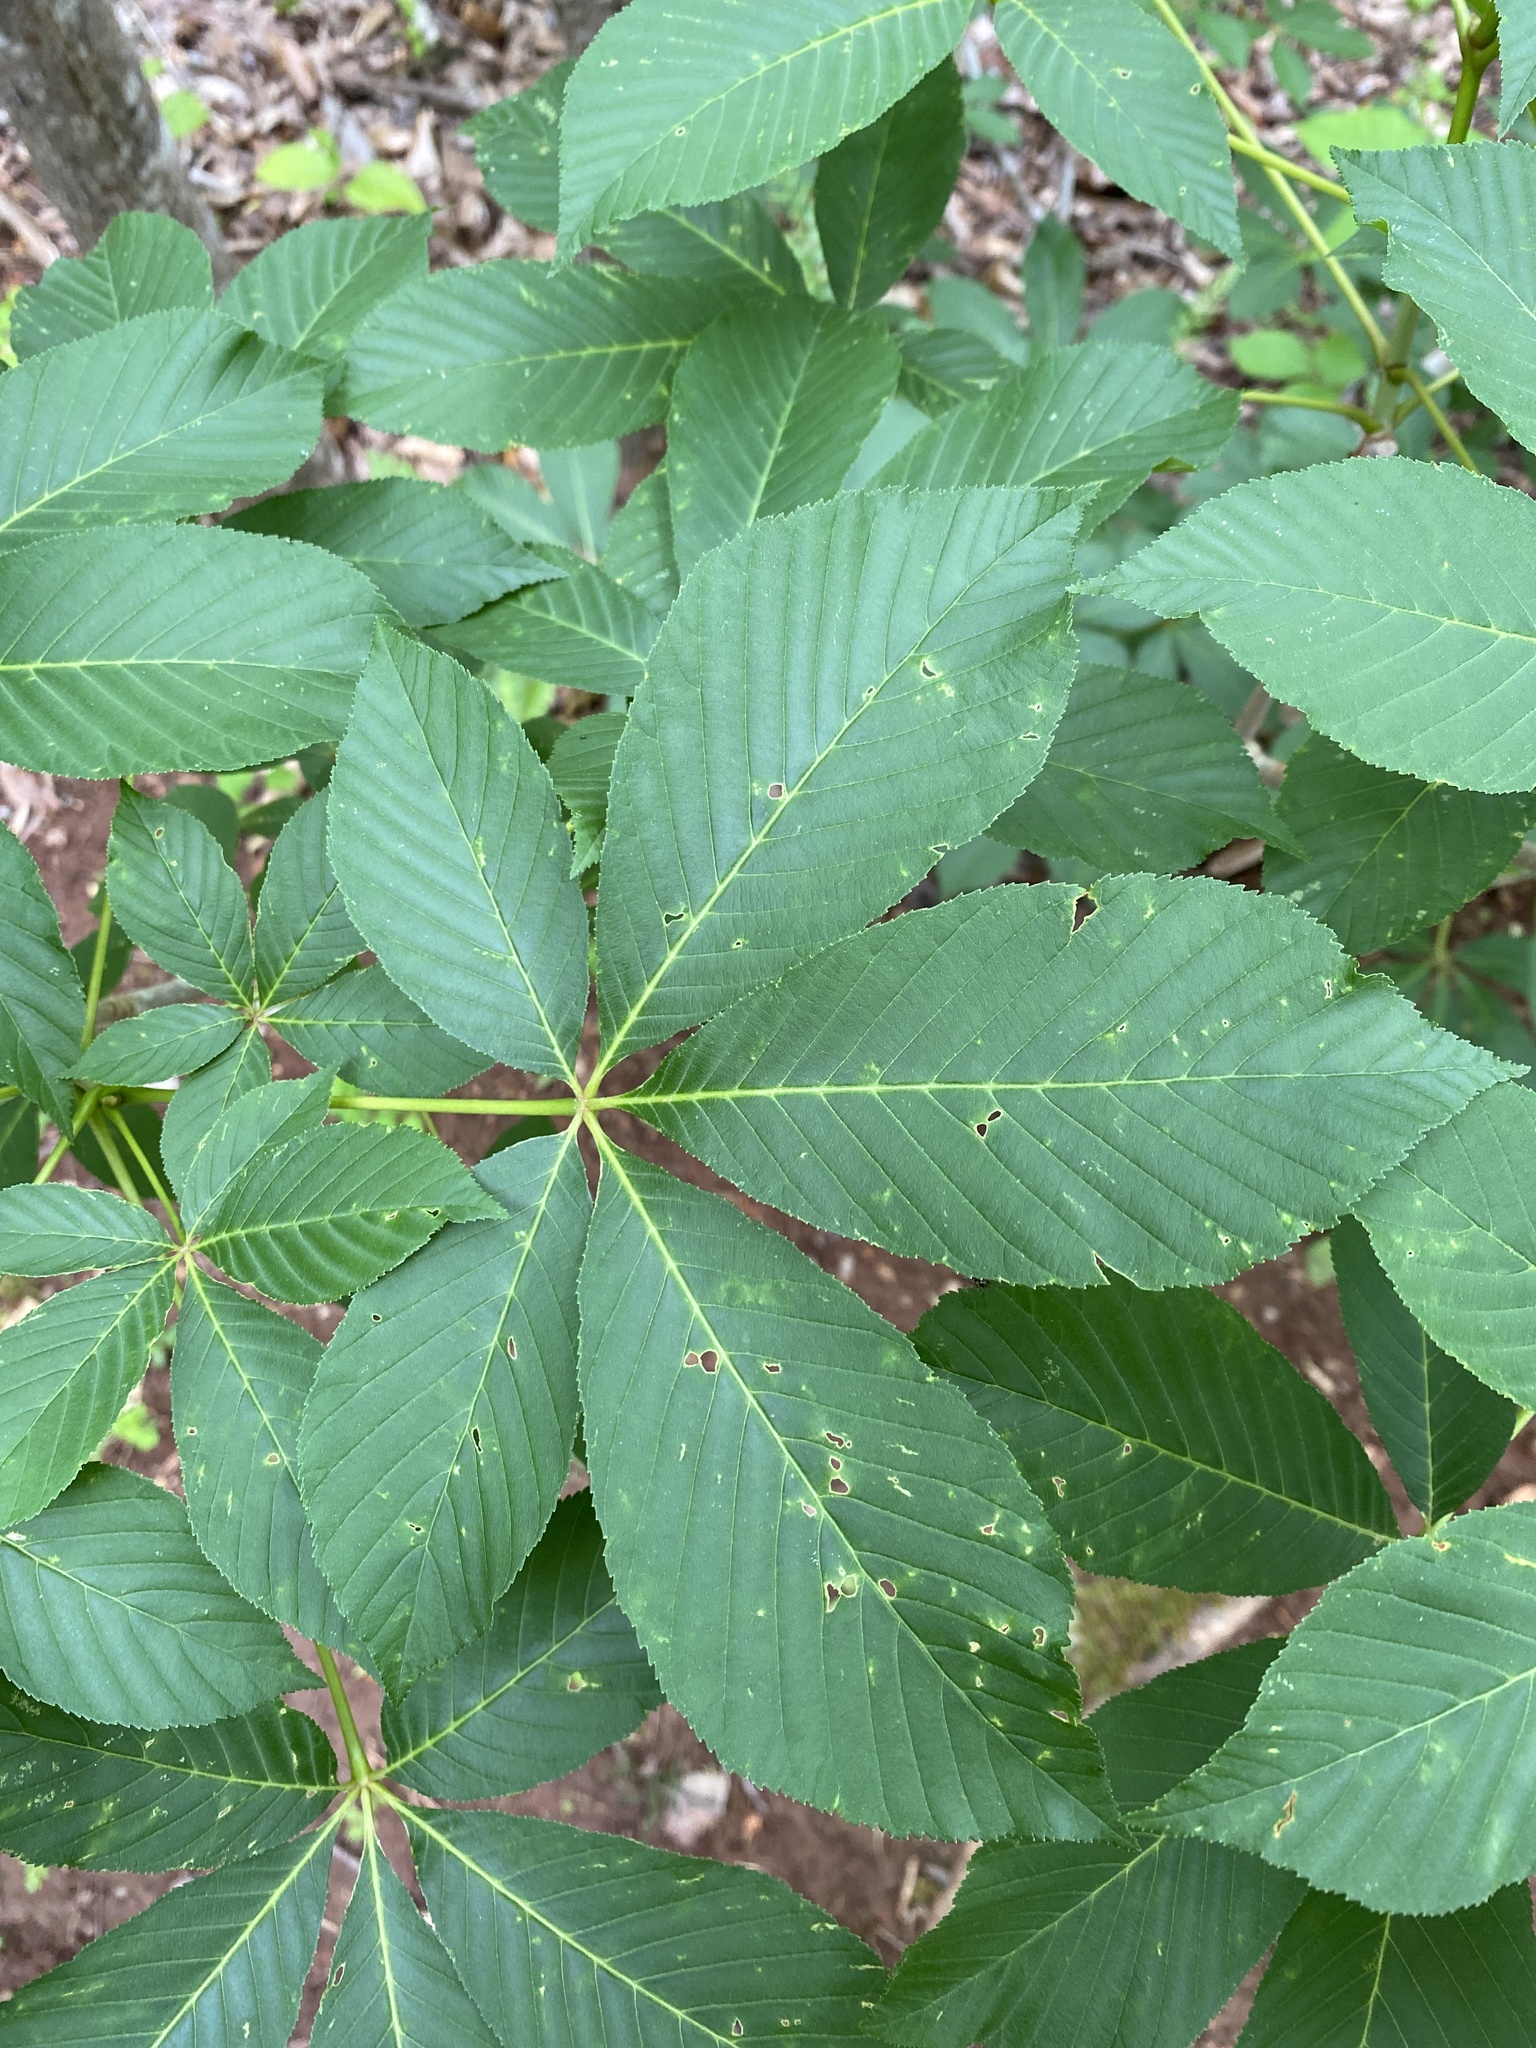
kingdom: Plantae
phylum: Tracheophyta
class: Magnoliopsida
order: Sapindales
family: Sapindaceae
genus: Aesculus
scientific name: Aesculus sylvatica
